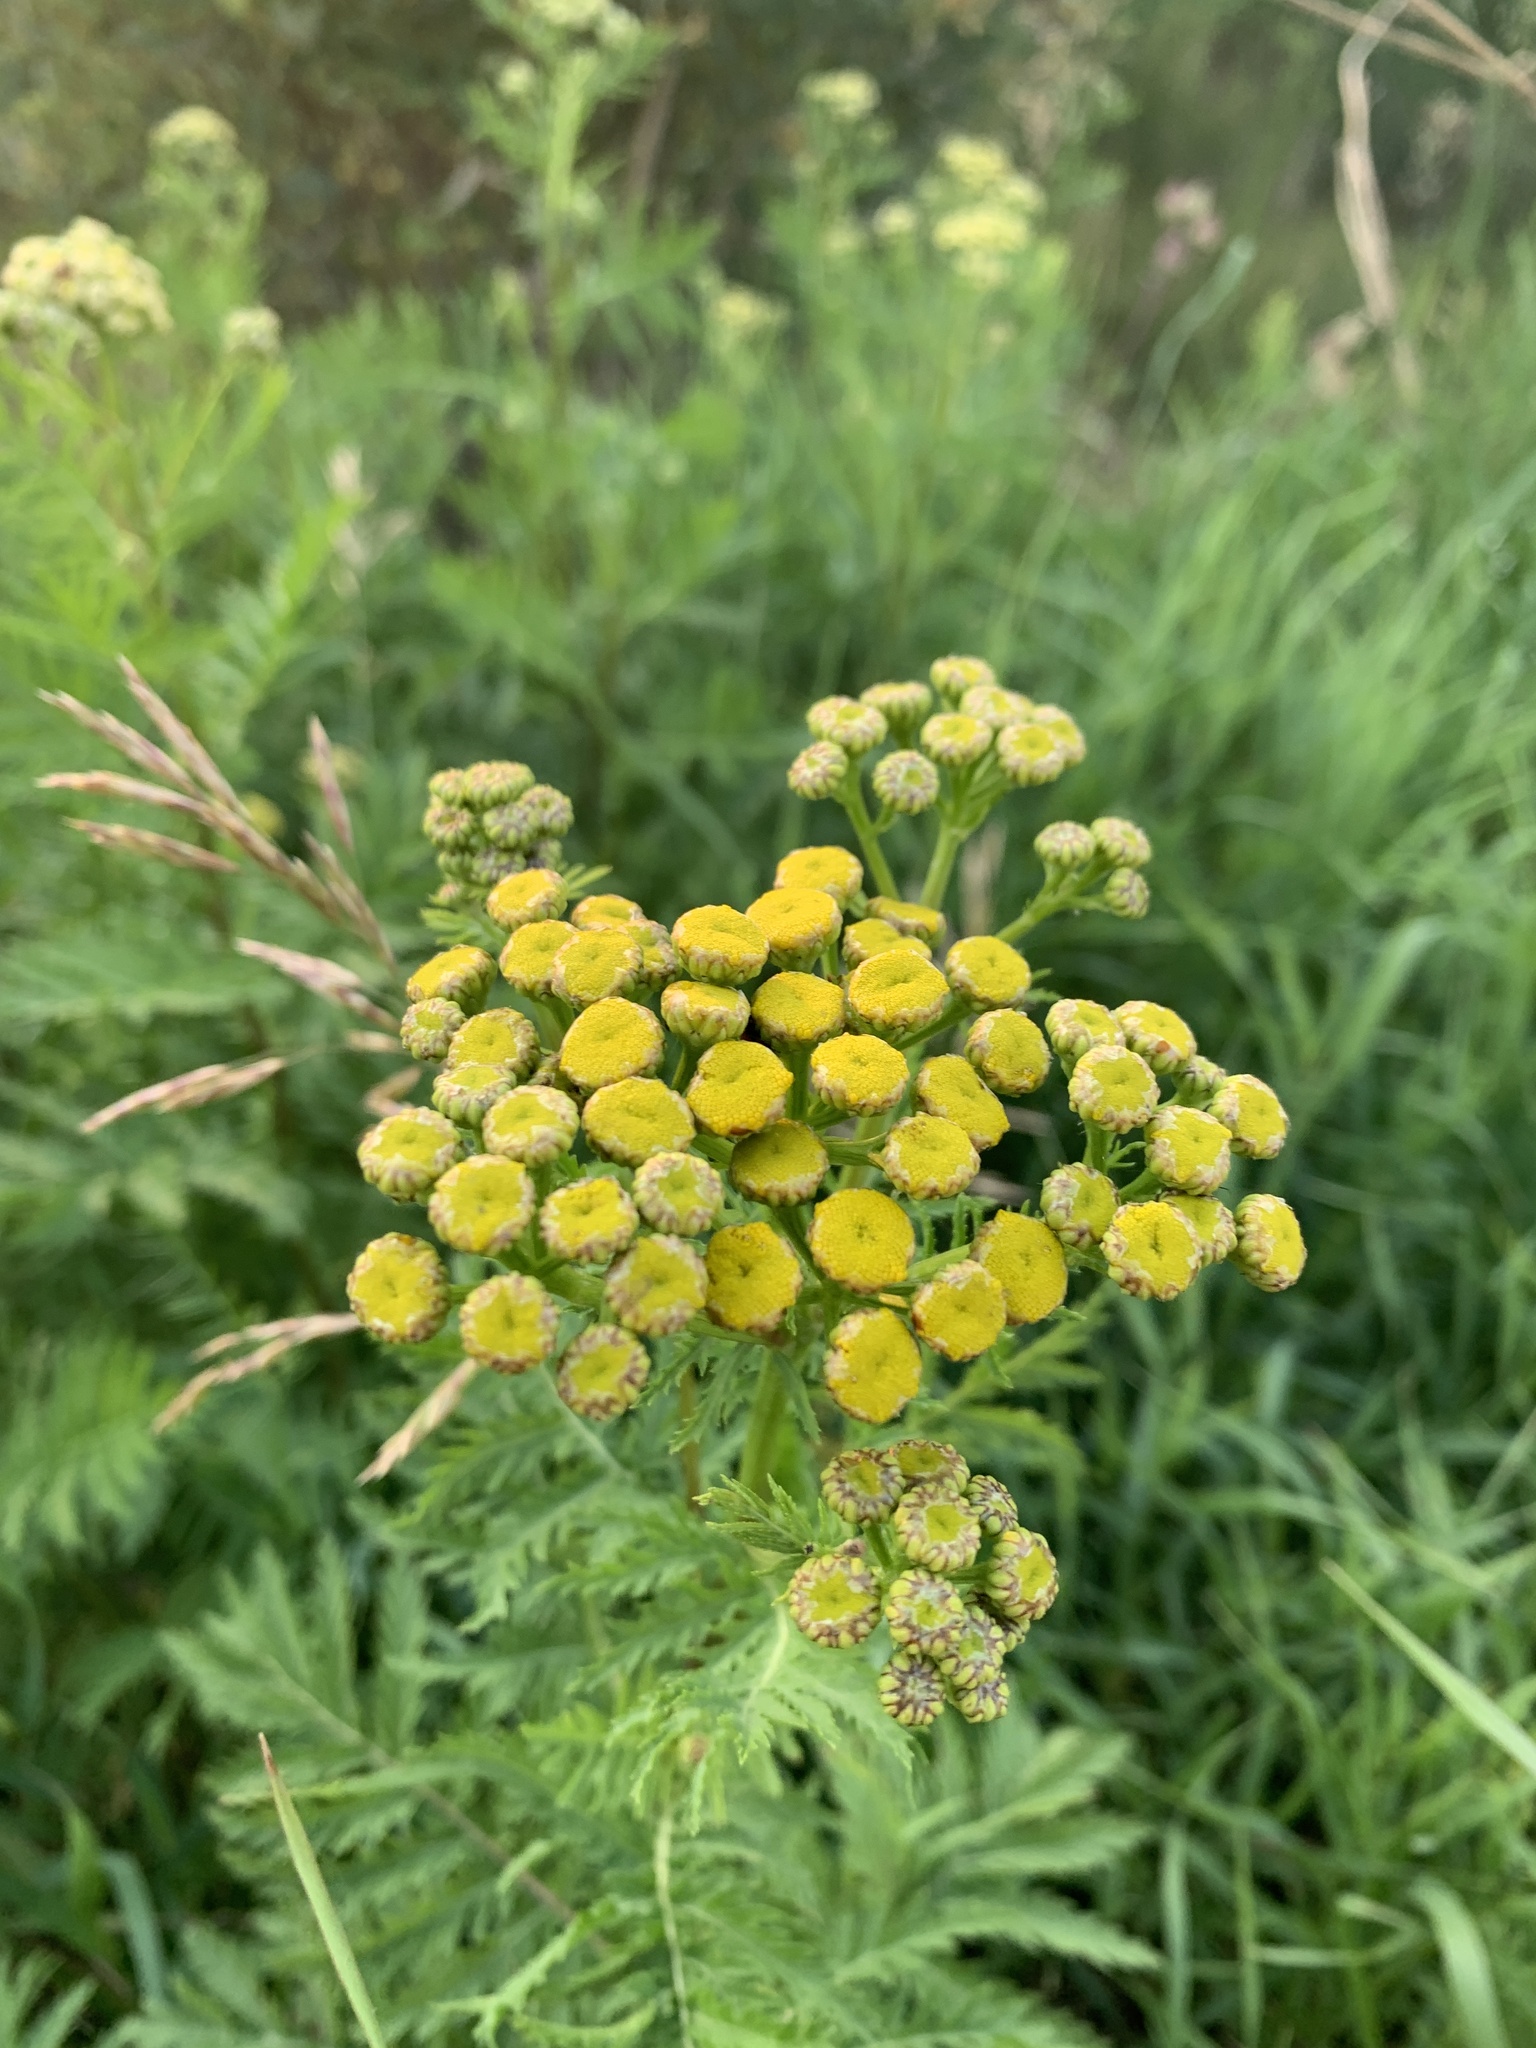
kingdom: Plantae
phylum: Tracheophyta
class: Magnoliopsida
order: Asterales
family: Asteraceae
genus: Tanacetum
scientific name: Tanacetum vulgare
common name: Common tansy
